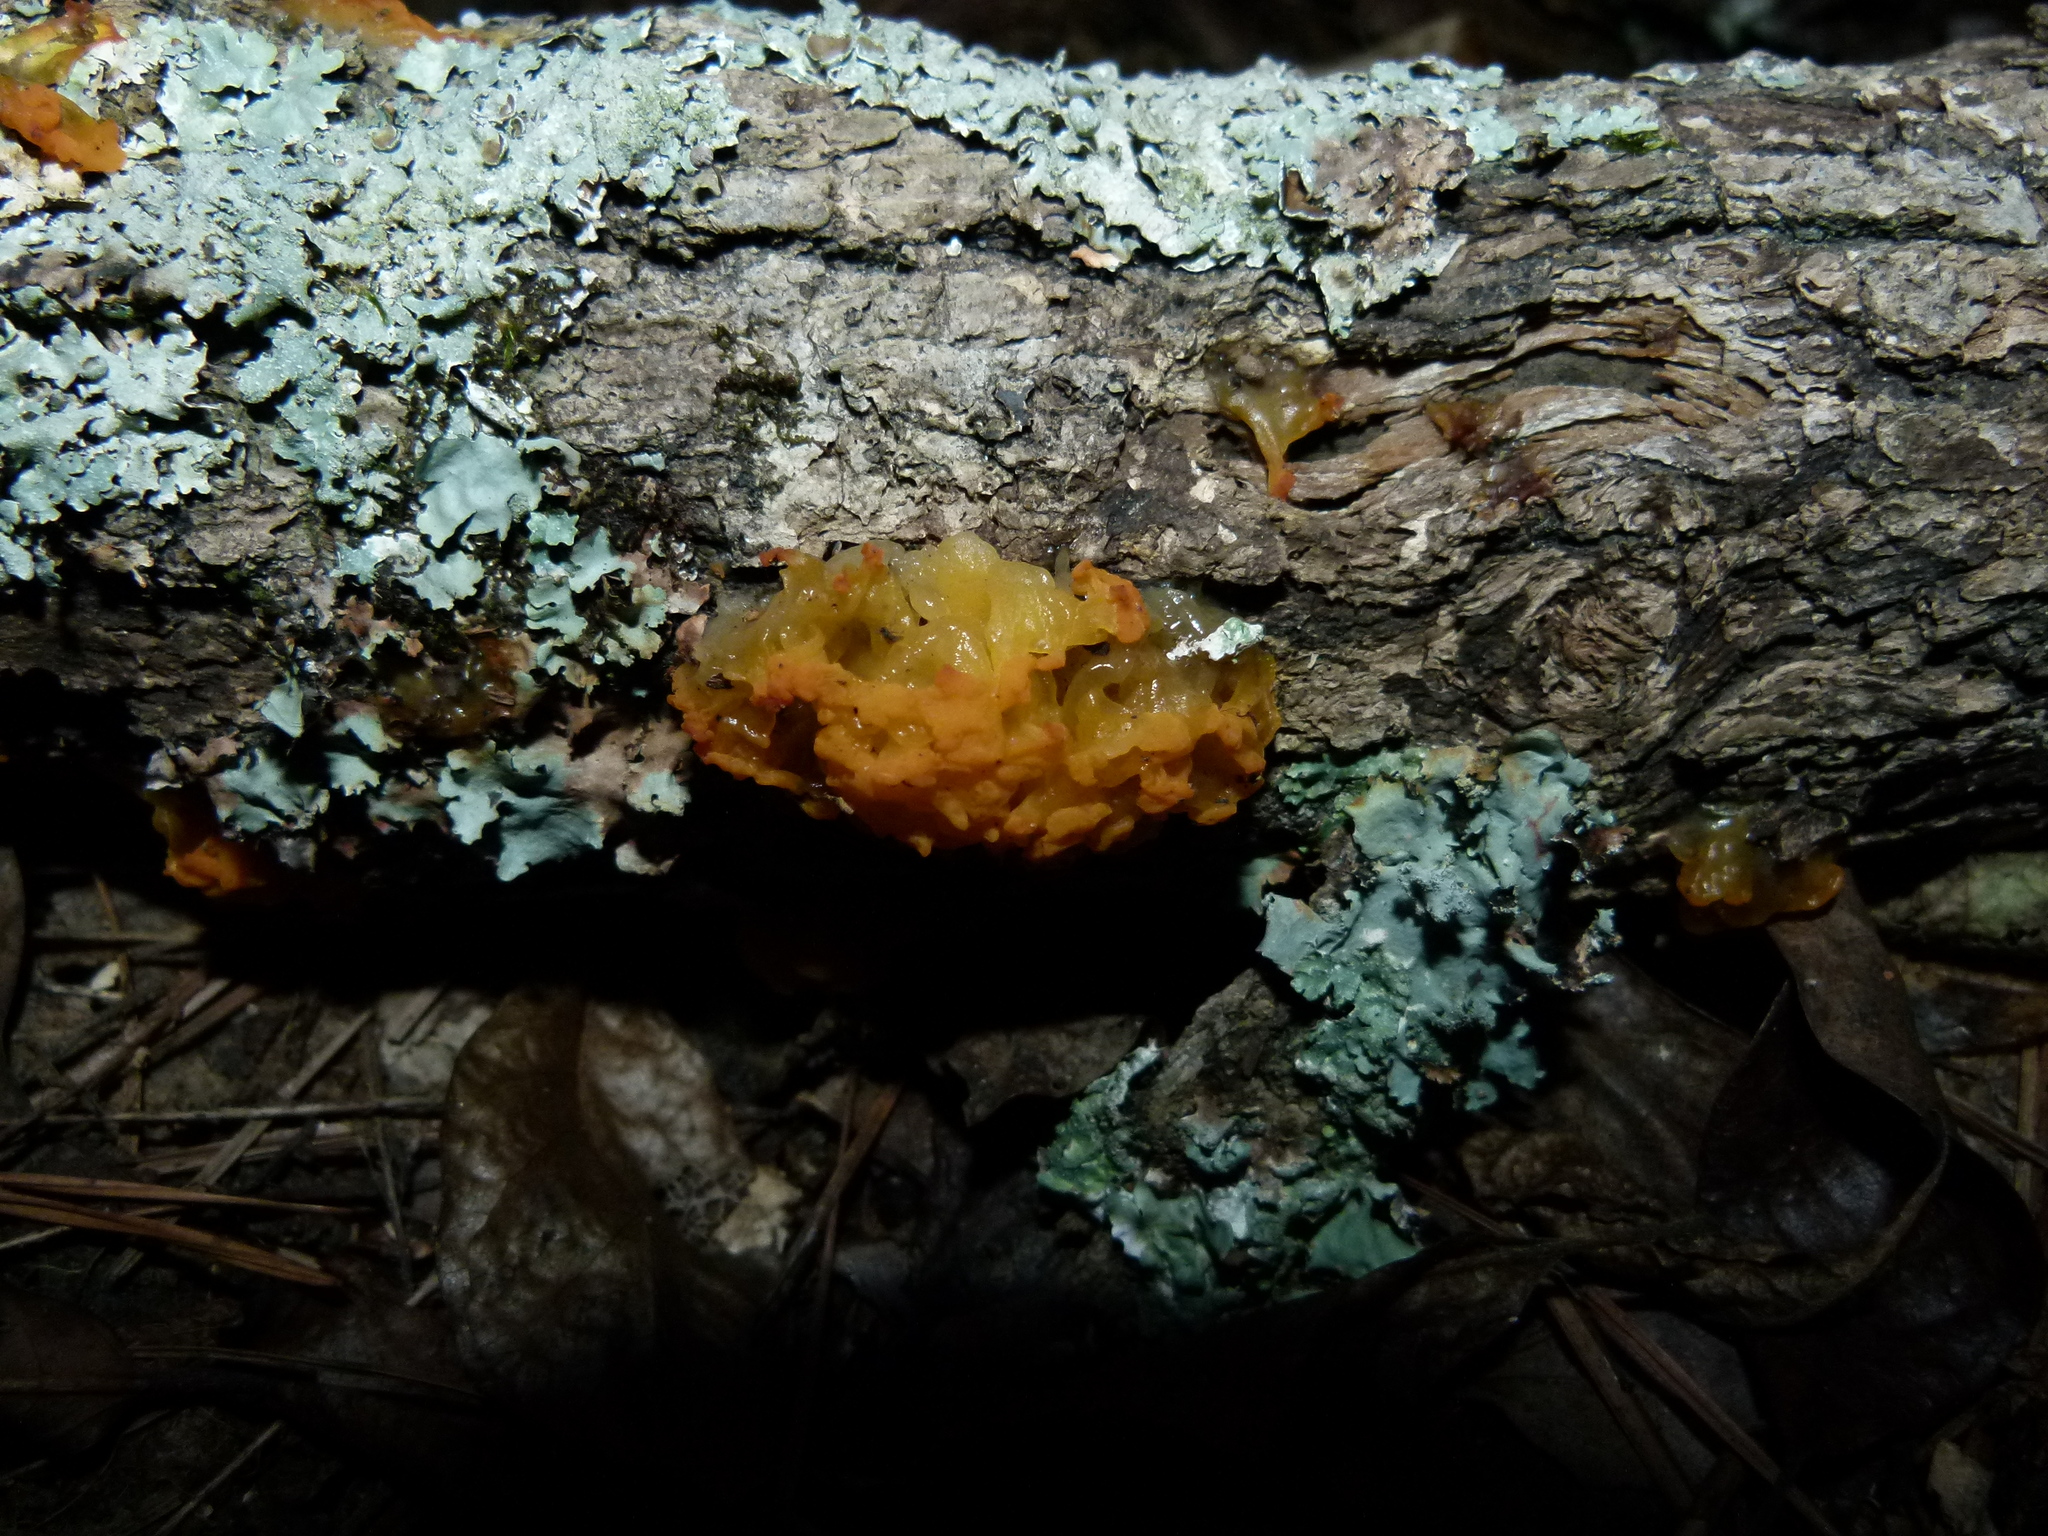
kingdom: Fungi
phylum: Basidiomycota
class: Tremellomycetes
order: Tremellales
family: Tremellaceae
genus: Tremella
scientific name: Tremella mesenterica
